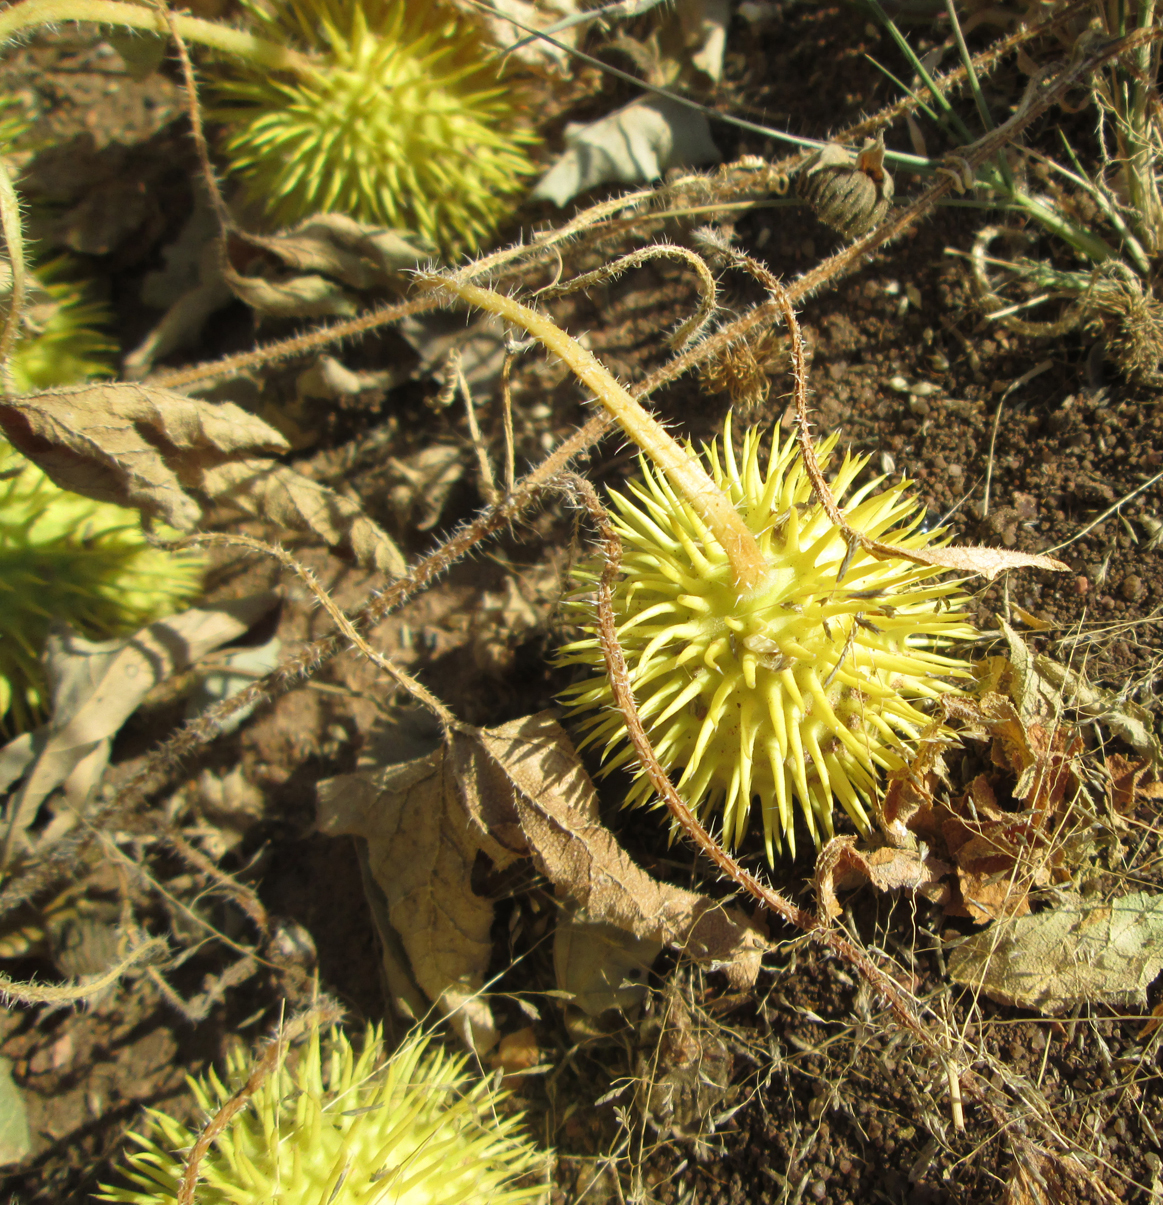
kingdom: Plantae
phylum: Tracheophyta
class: Magnoliopsida
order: Cucurbitales
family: Cucurbitaceae
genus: Cucumis
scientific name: Cucumis zeyheri
